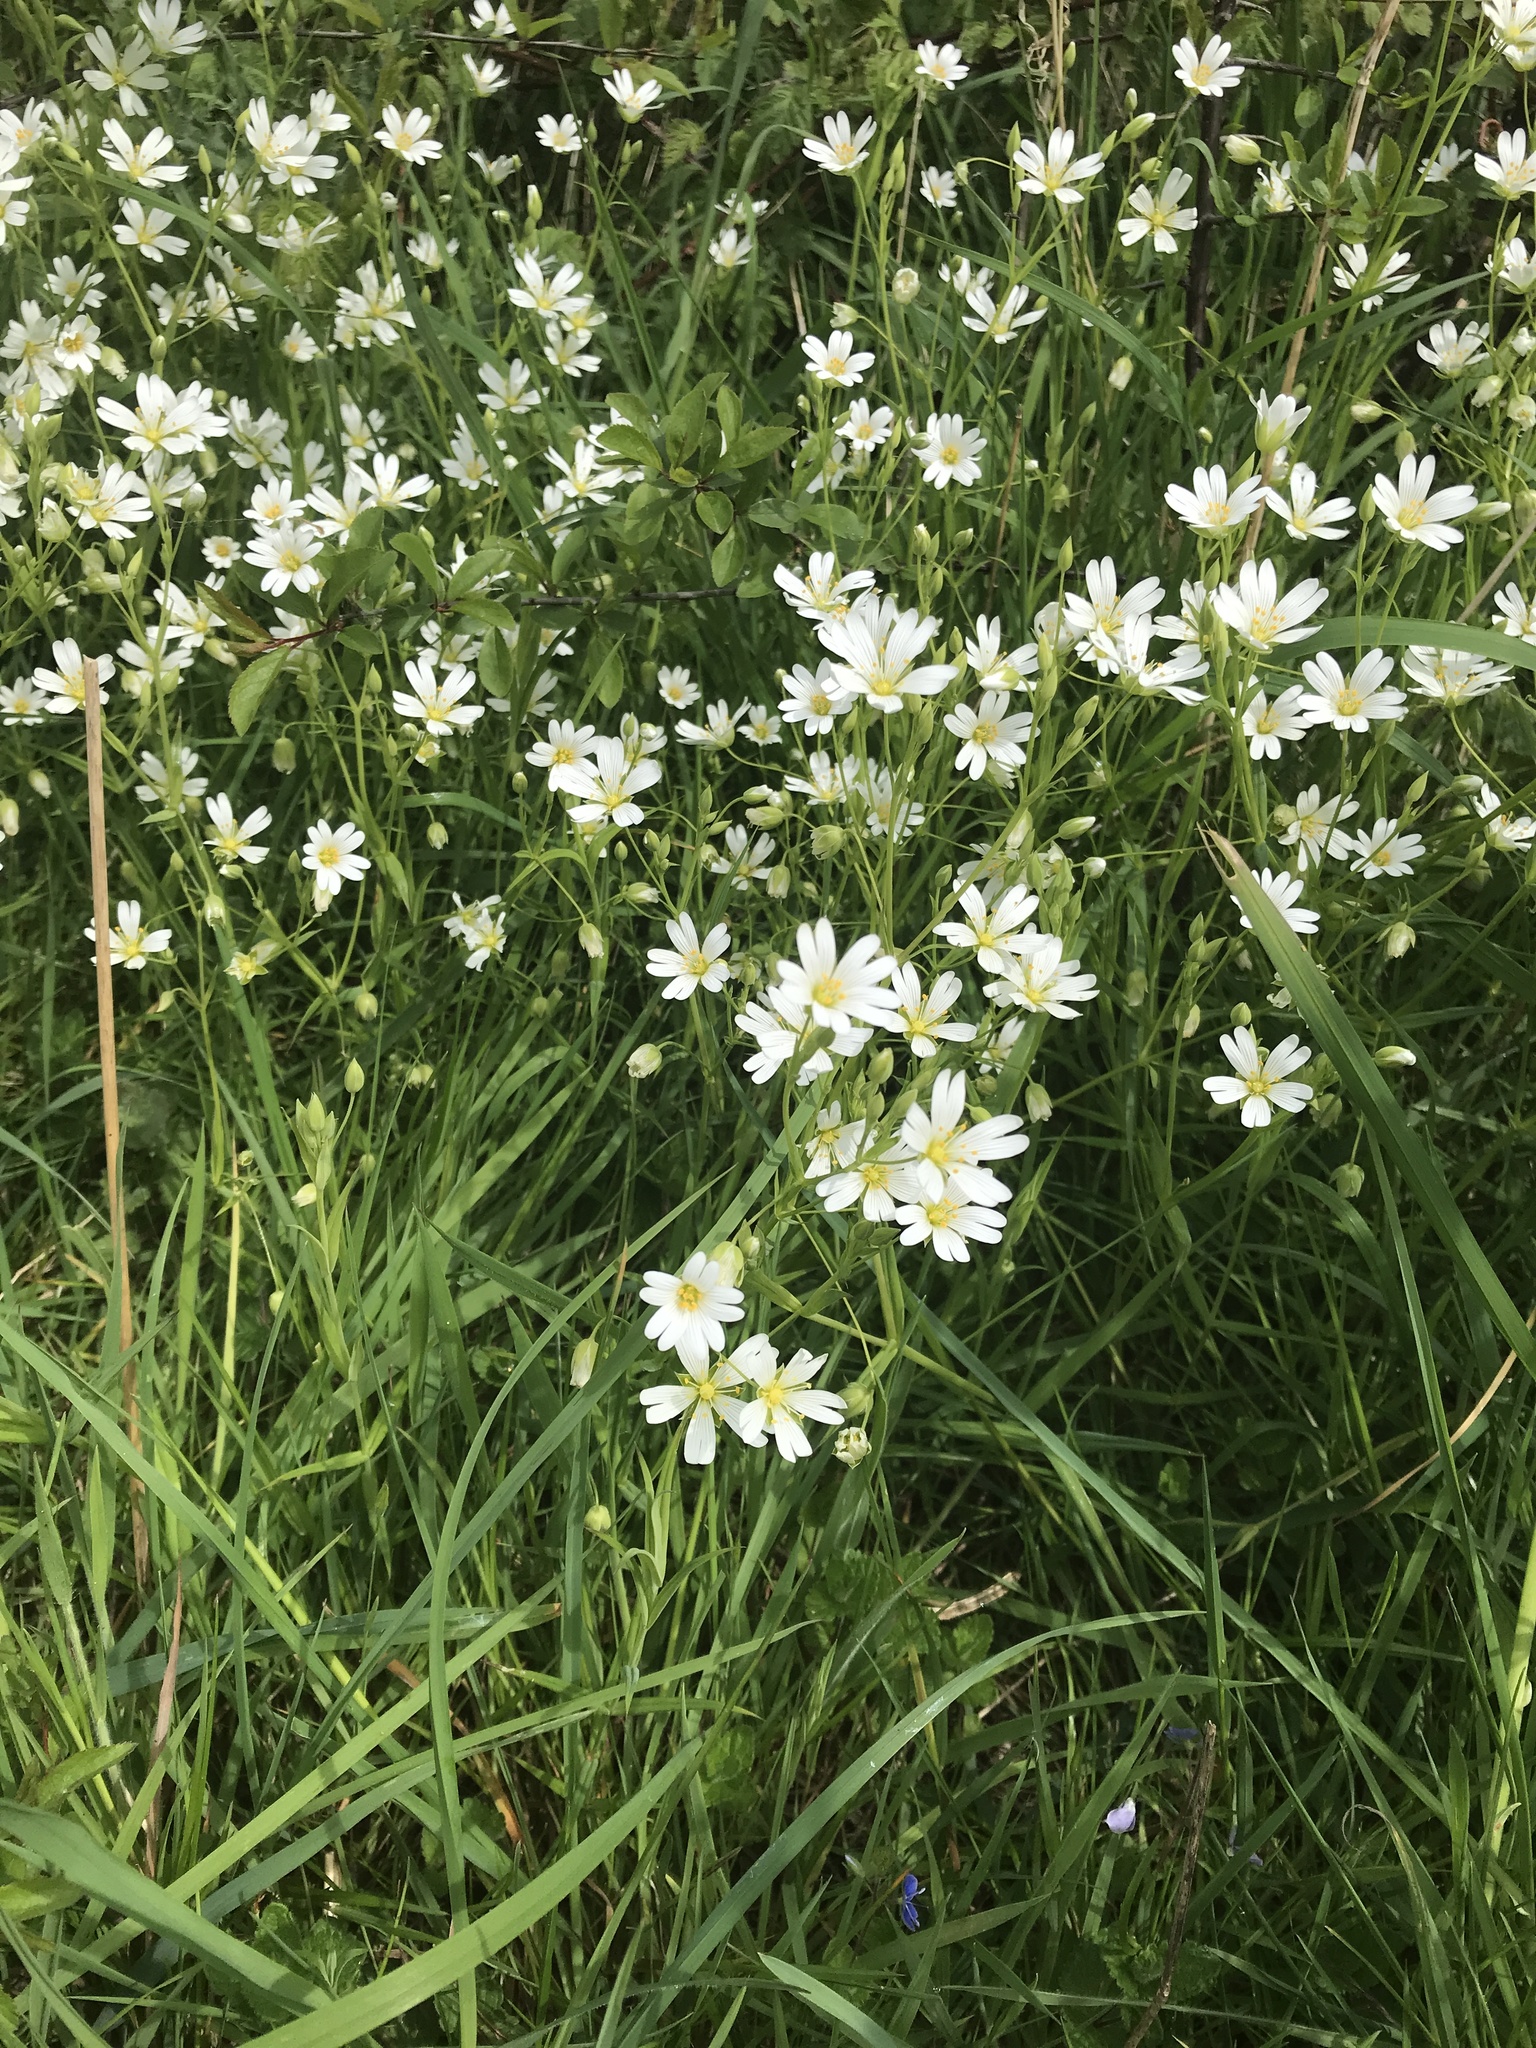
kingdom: Plantae
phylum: Tracheophyta
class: Magnoliopsida
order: Caryophyllales
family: Caryophyllaceae
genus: Rabelera
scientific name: Rabelera holostea
